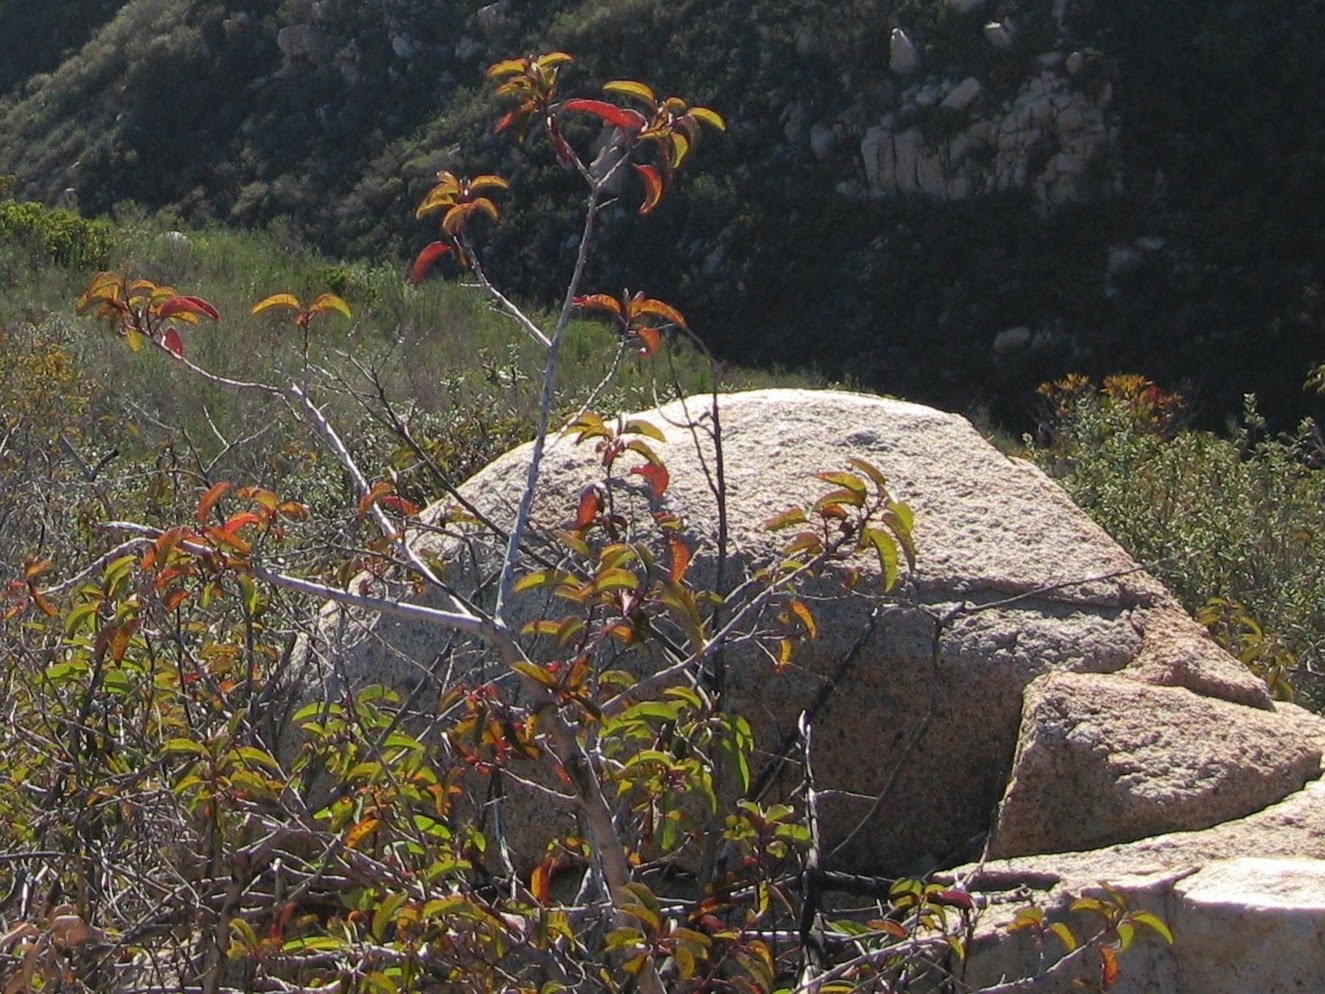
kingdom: Plantae
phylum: Tracheophyta
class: Magnoliopsida
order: Sapindales
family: Anacardiaceae
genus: Malosma
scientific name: Malosma laurina
